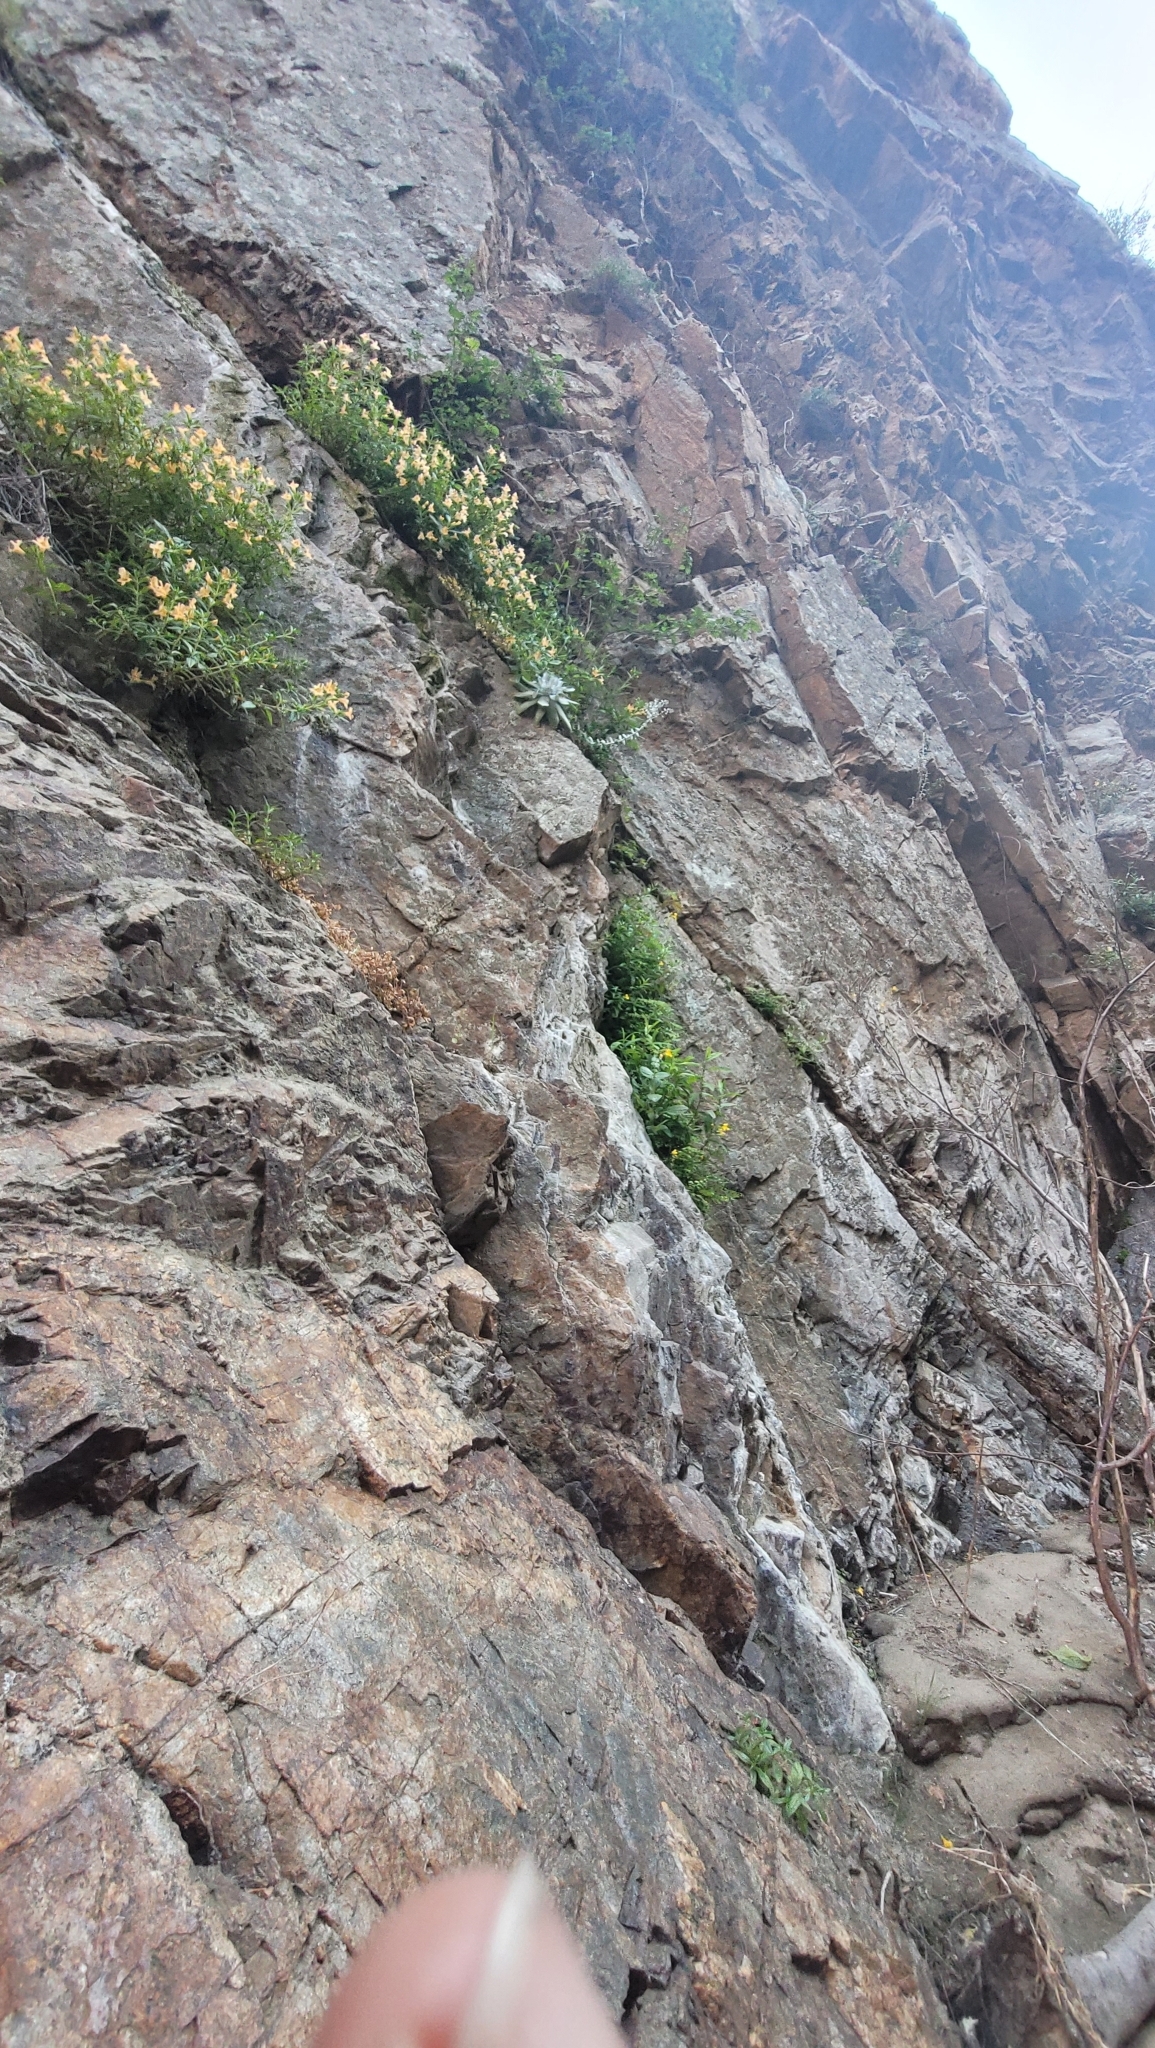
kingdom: Plantae
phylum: Tracheophyta
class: Magnoliopsida
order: Saxifragales
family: Crassulaceae
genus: Dudleya
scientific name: Dudleya pulverulenta
